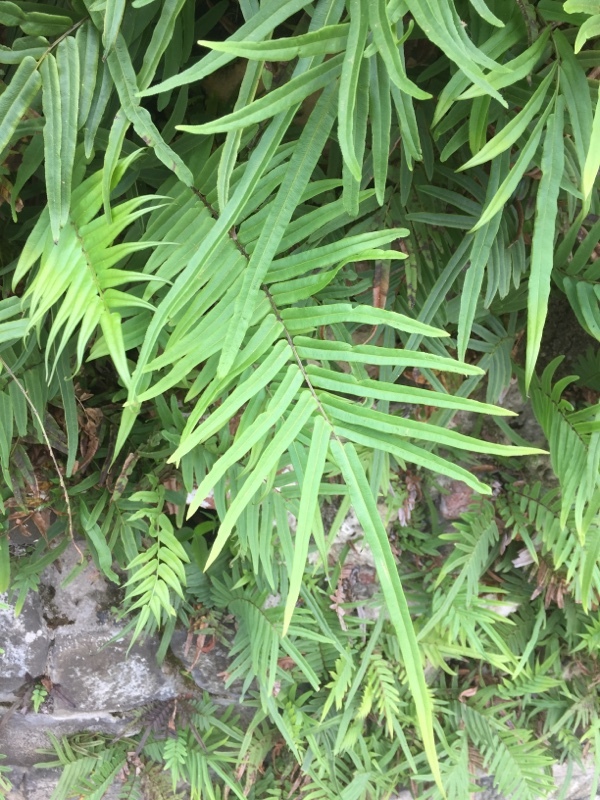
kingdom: Plantae
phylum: Tracheophyta
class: Polypodiopsida
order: Polypodiales
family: Pteridaceae
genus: Pteris
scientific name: Pteris vittata
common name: Ladder brake
